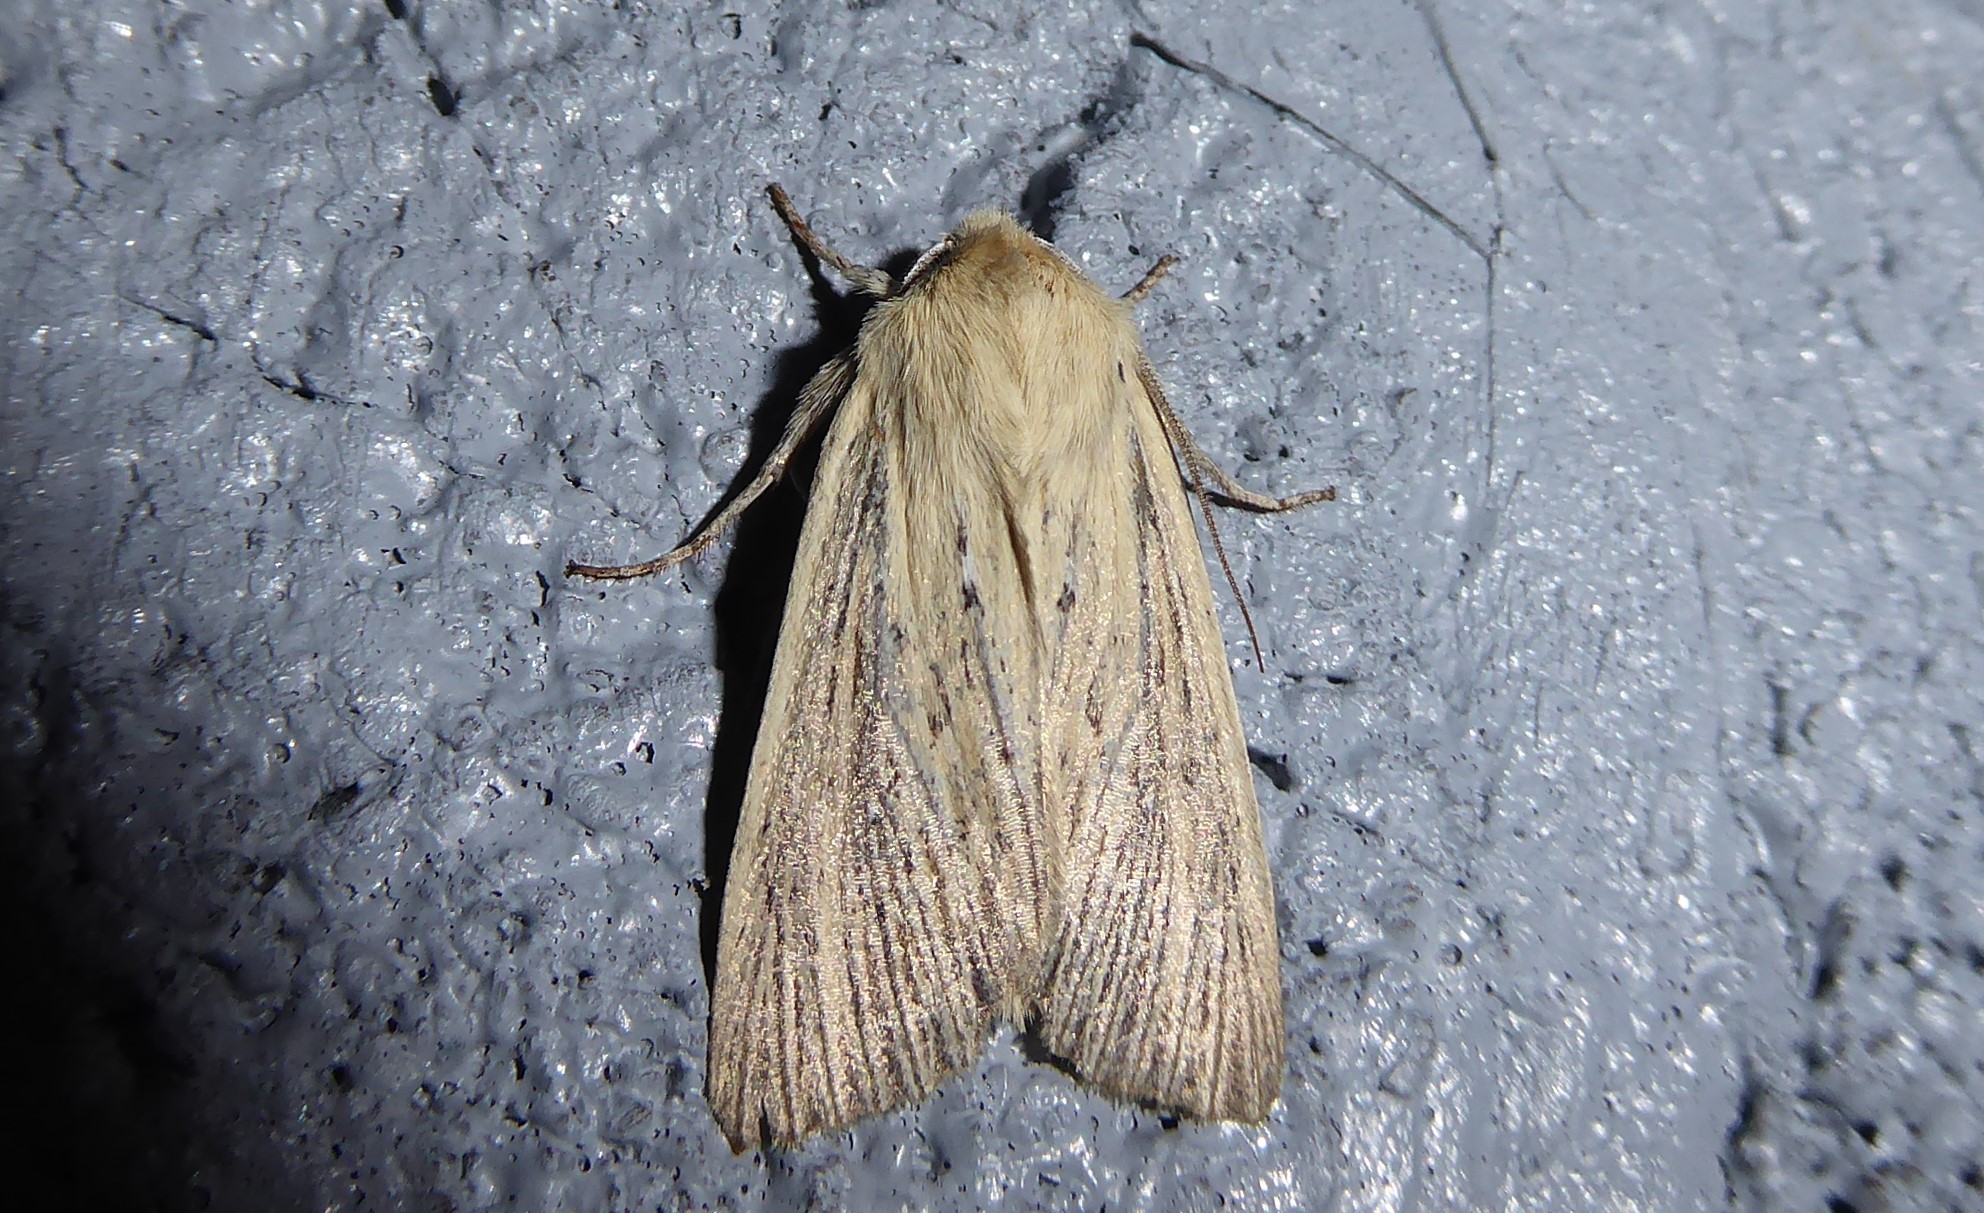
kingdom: Animalia
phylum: Arthropoda
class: Insecta
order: Lepidoptera
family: Noctuidae
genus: Ichneutica
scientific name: Ichneutica arotis
